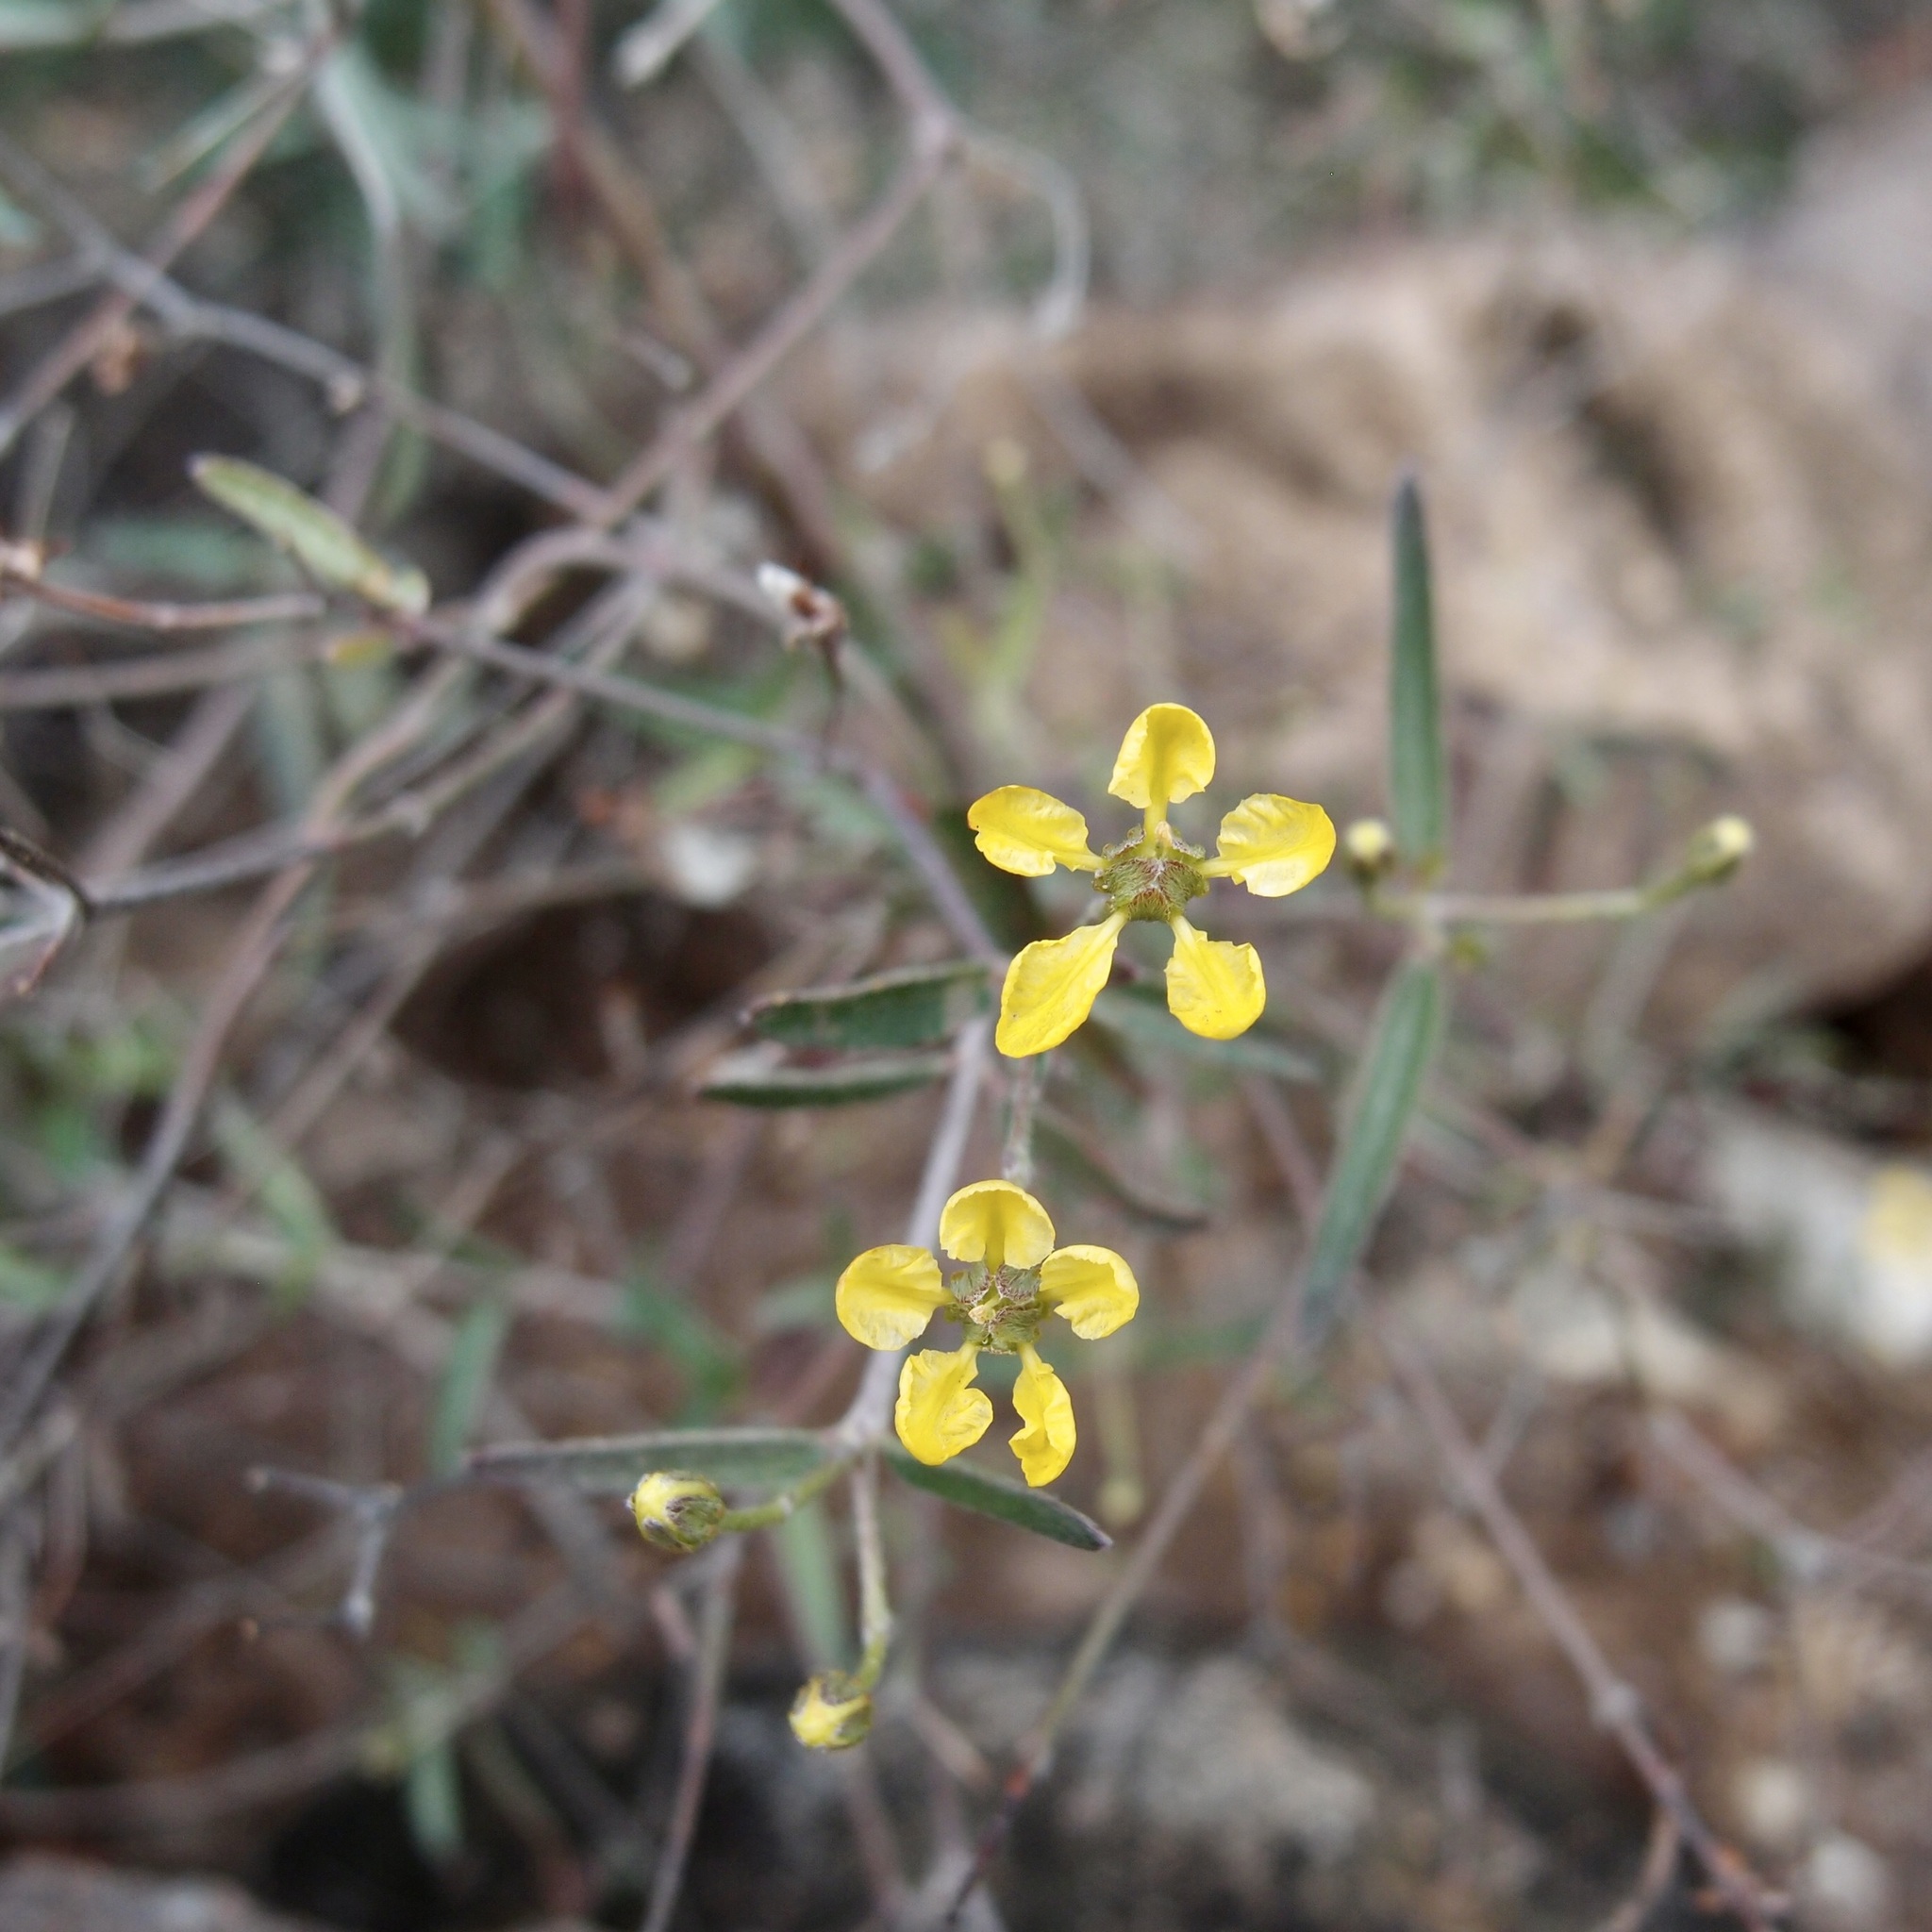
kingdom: Plantae
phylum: Tracheophyta
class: Magnoliopsida
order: Malpighiales
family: Malpighiaceae
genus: Cottsia
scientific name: Cottsia gracilis
